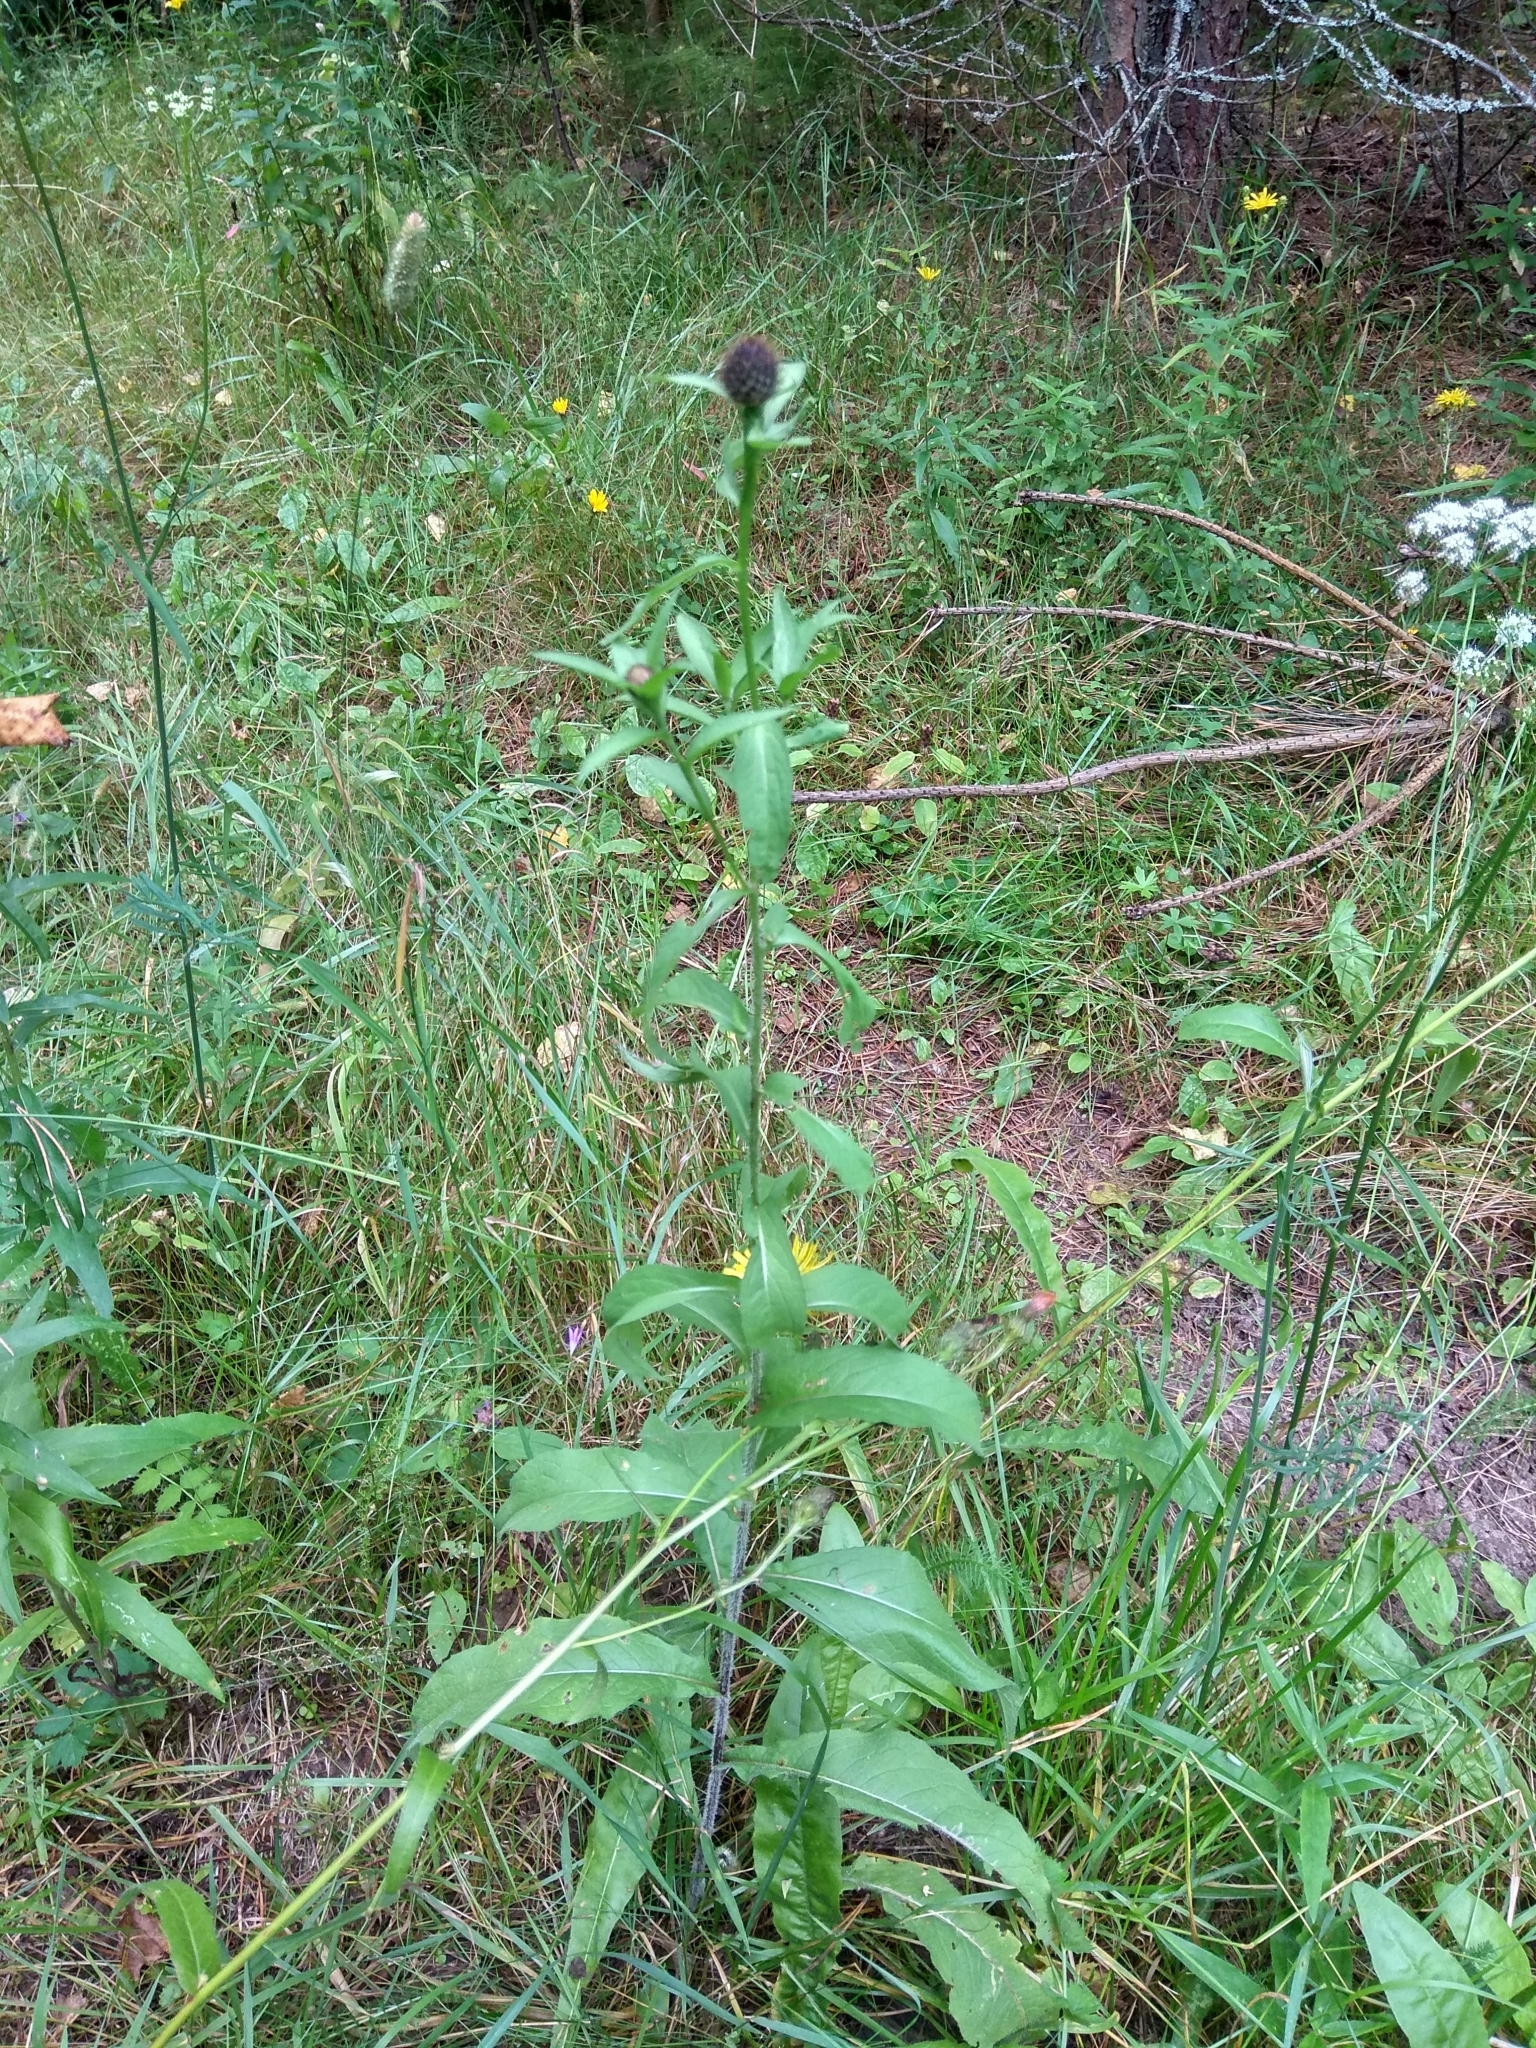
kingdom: Plantae
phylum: Tracheophyta
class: Magnoliopsida
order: Asterales
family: Asteraceae
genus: Centaurea
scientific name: Centaurea phrygia
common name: Wig knapweed
